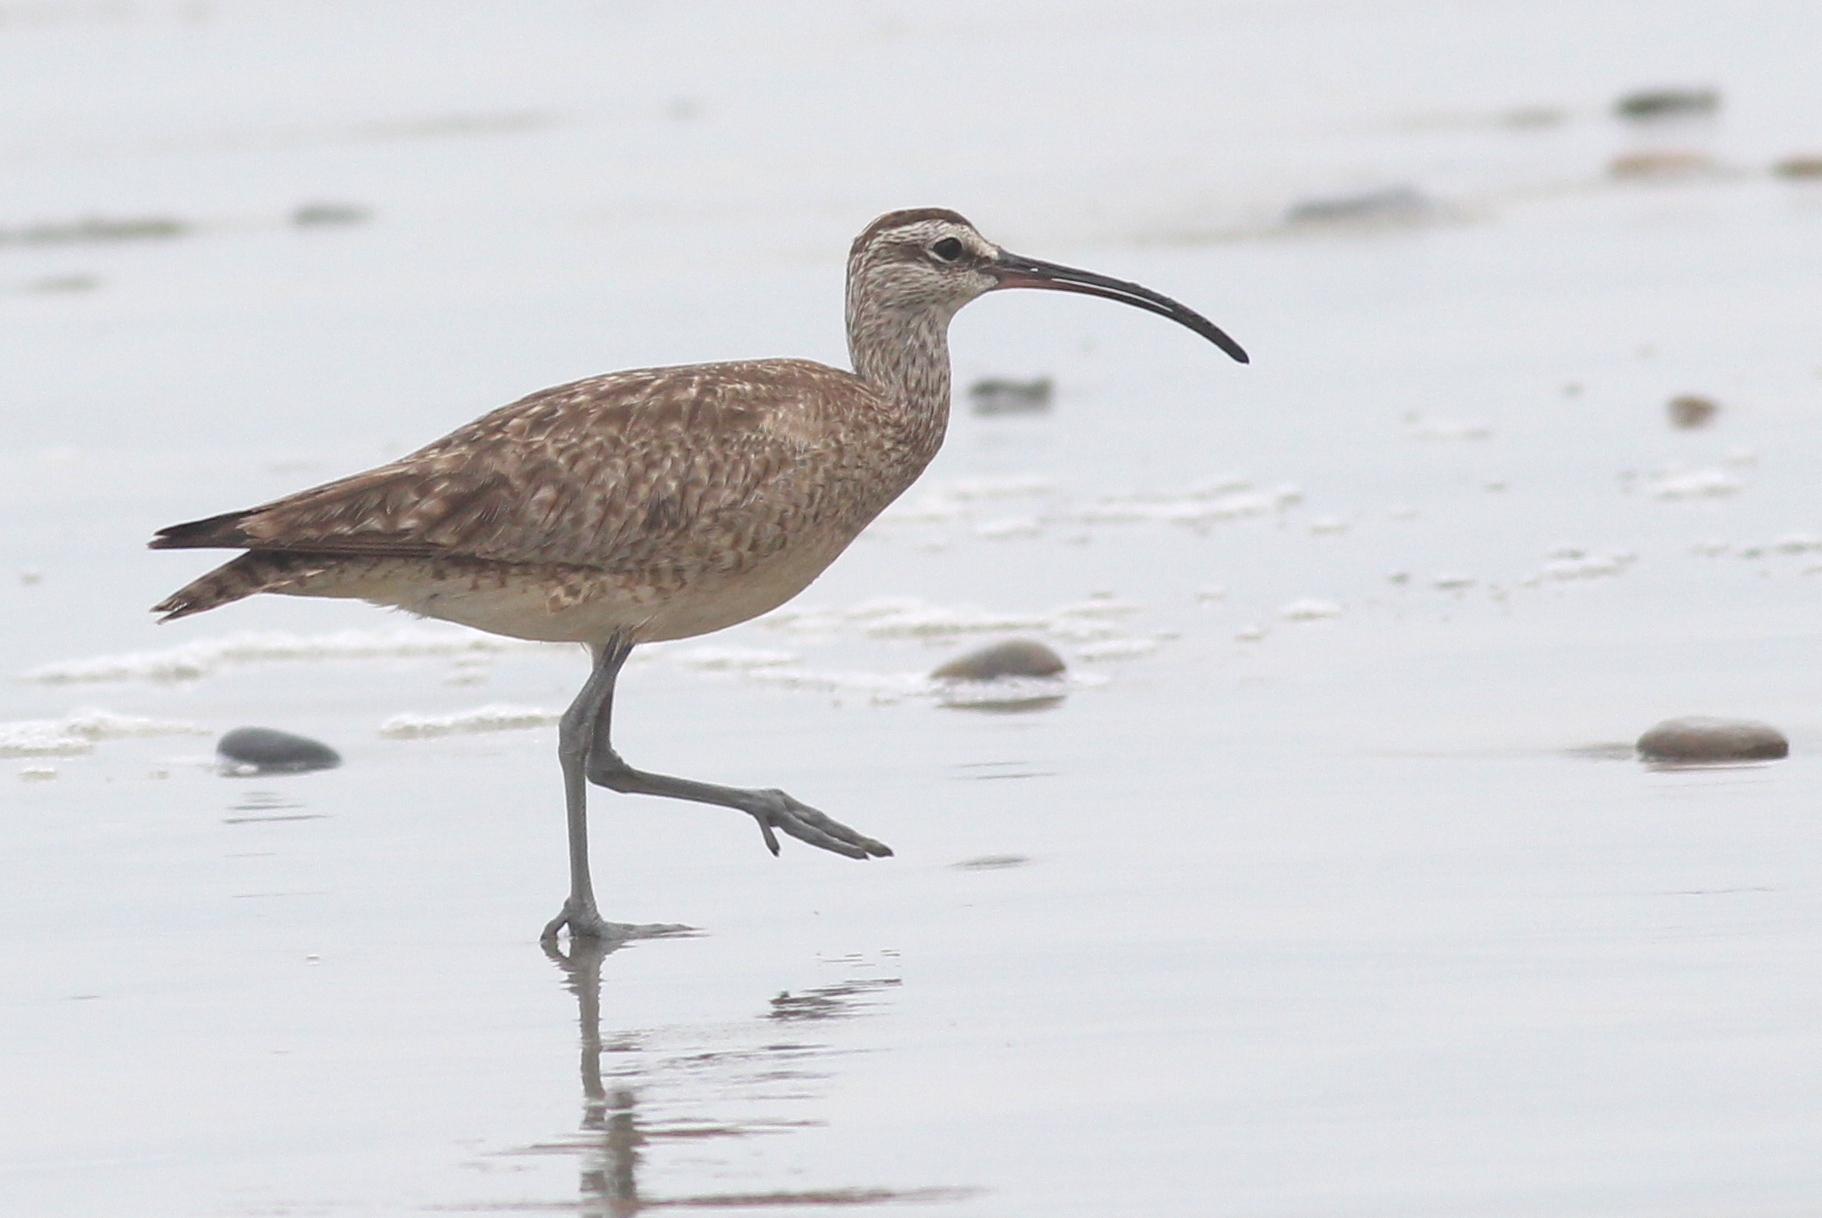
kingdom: Animalia
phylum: Chordata
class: Aves
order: Charadriiformes
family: Scolopacidae
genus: Numenius
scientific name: Numenius phaeopus
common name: Whimbrel
